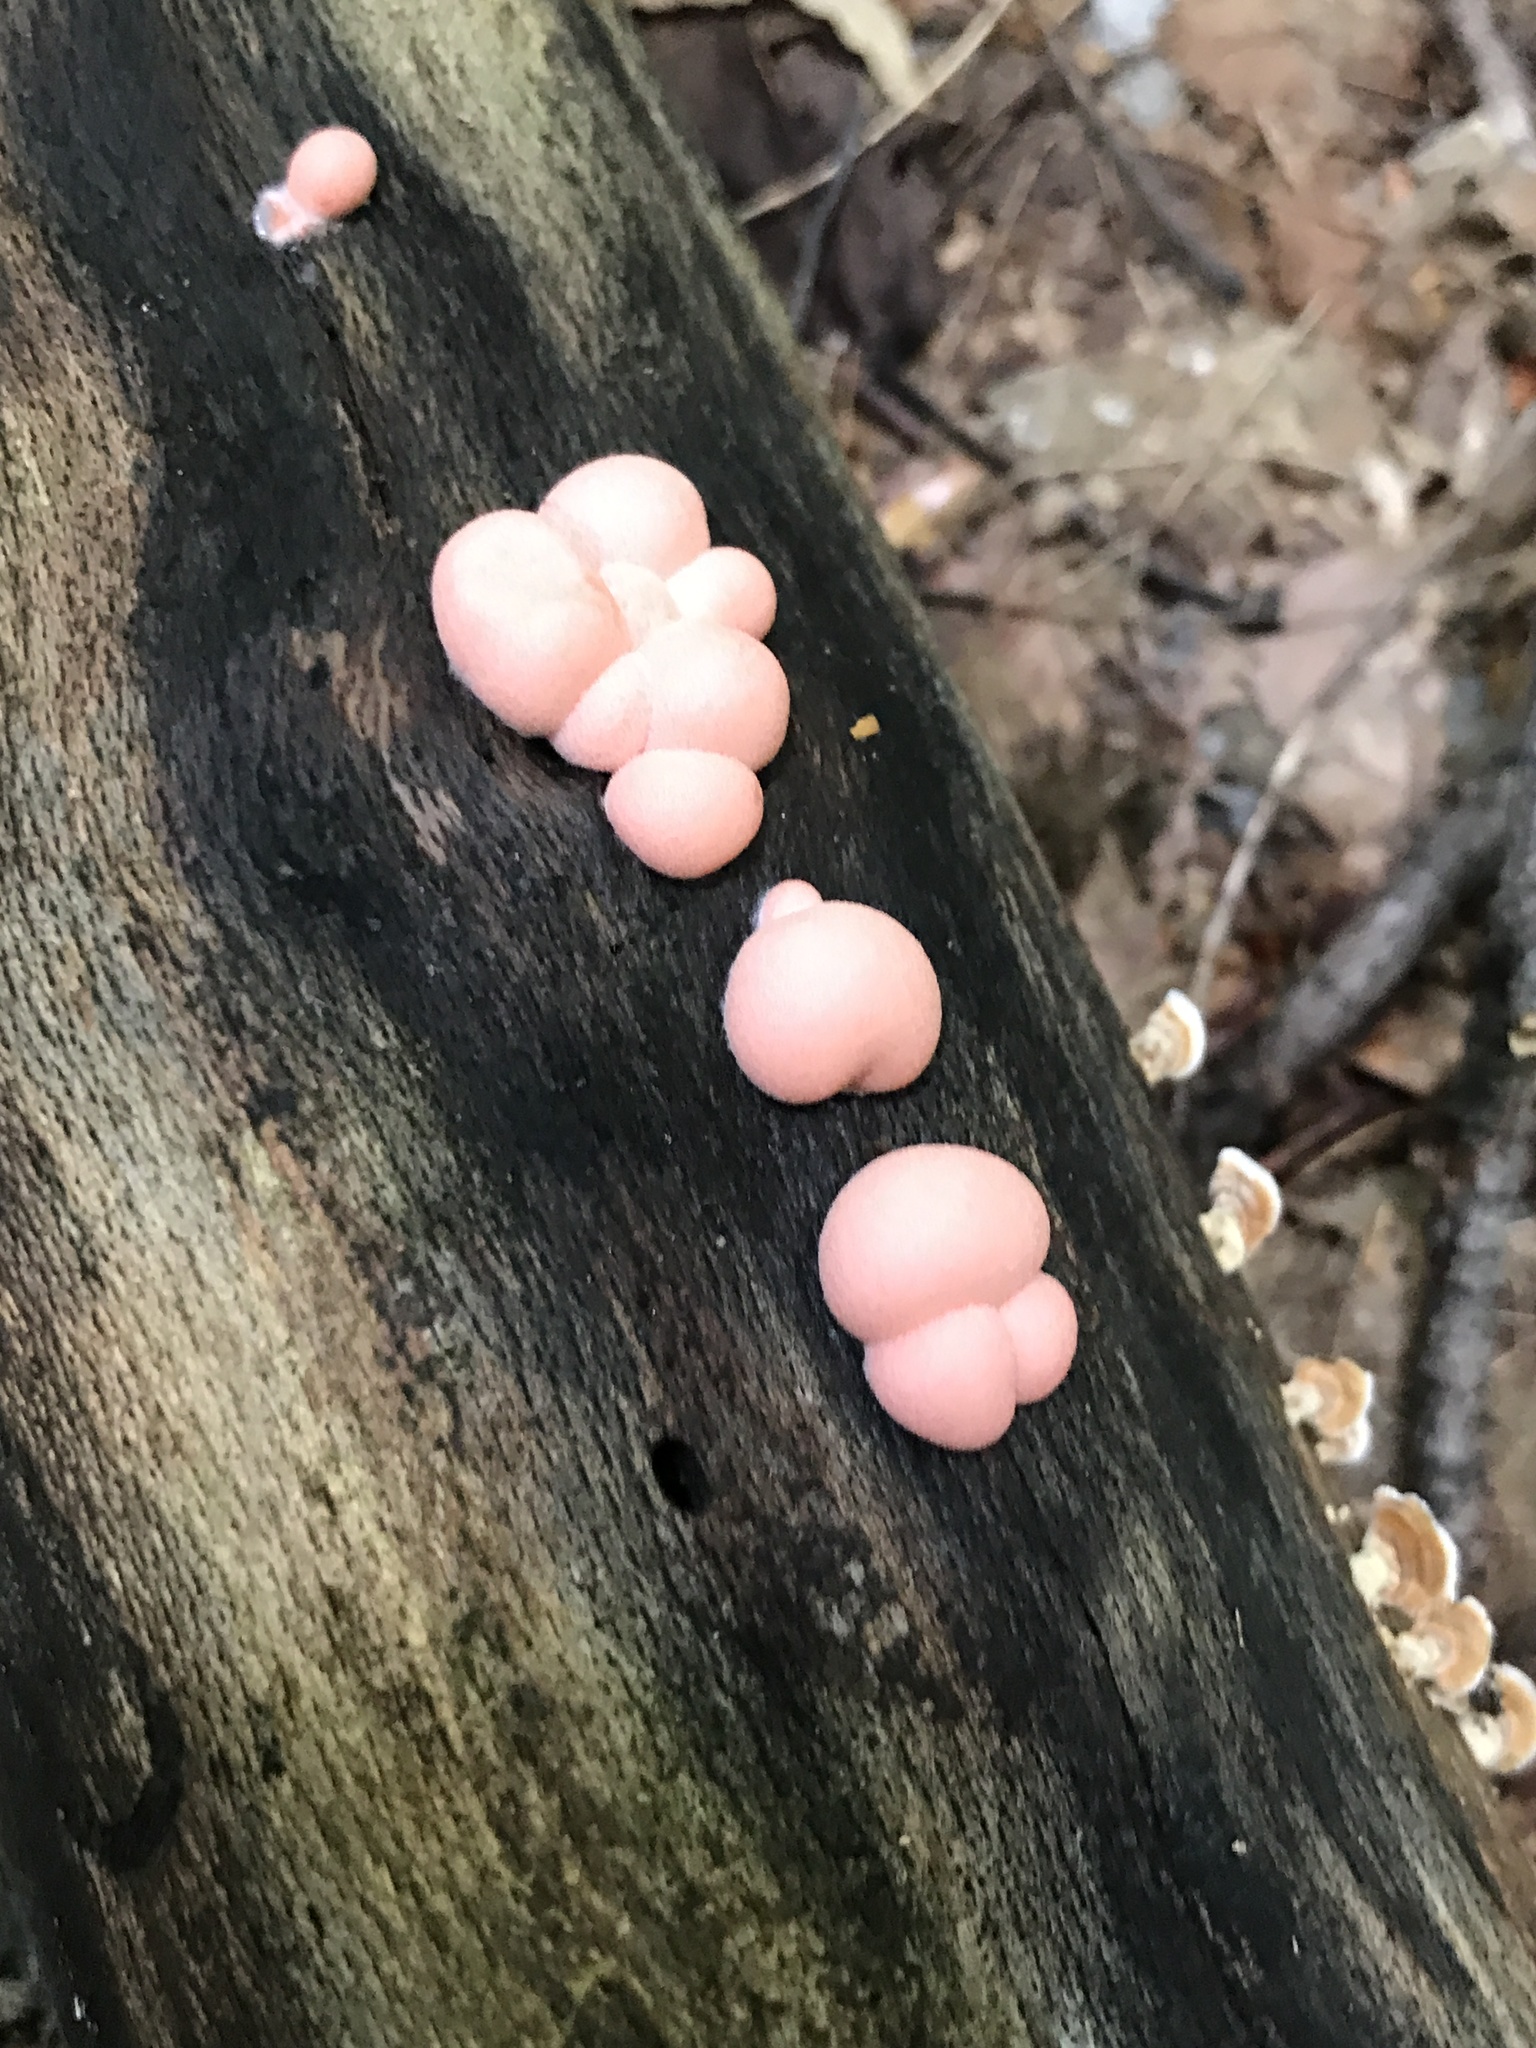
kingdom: Protozoa
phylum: Mycetozoa
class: Myxomycetes
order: Cribrariales
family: Tubiferaceae
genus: Lycogala
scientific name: Lycogala epidendrum
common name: Wolf's milk
